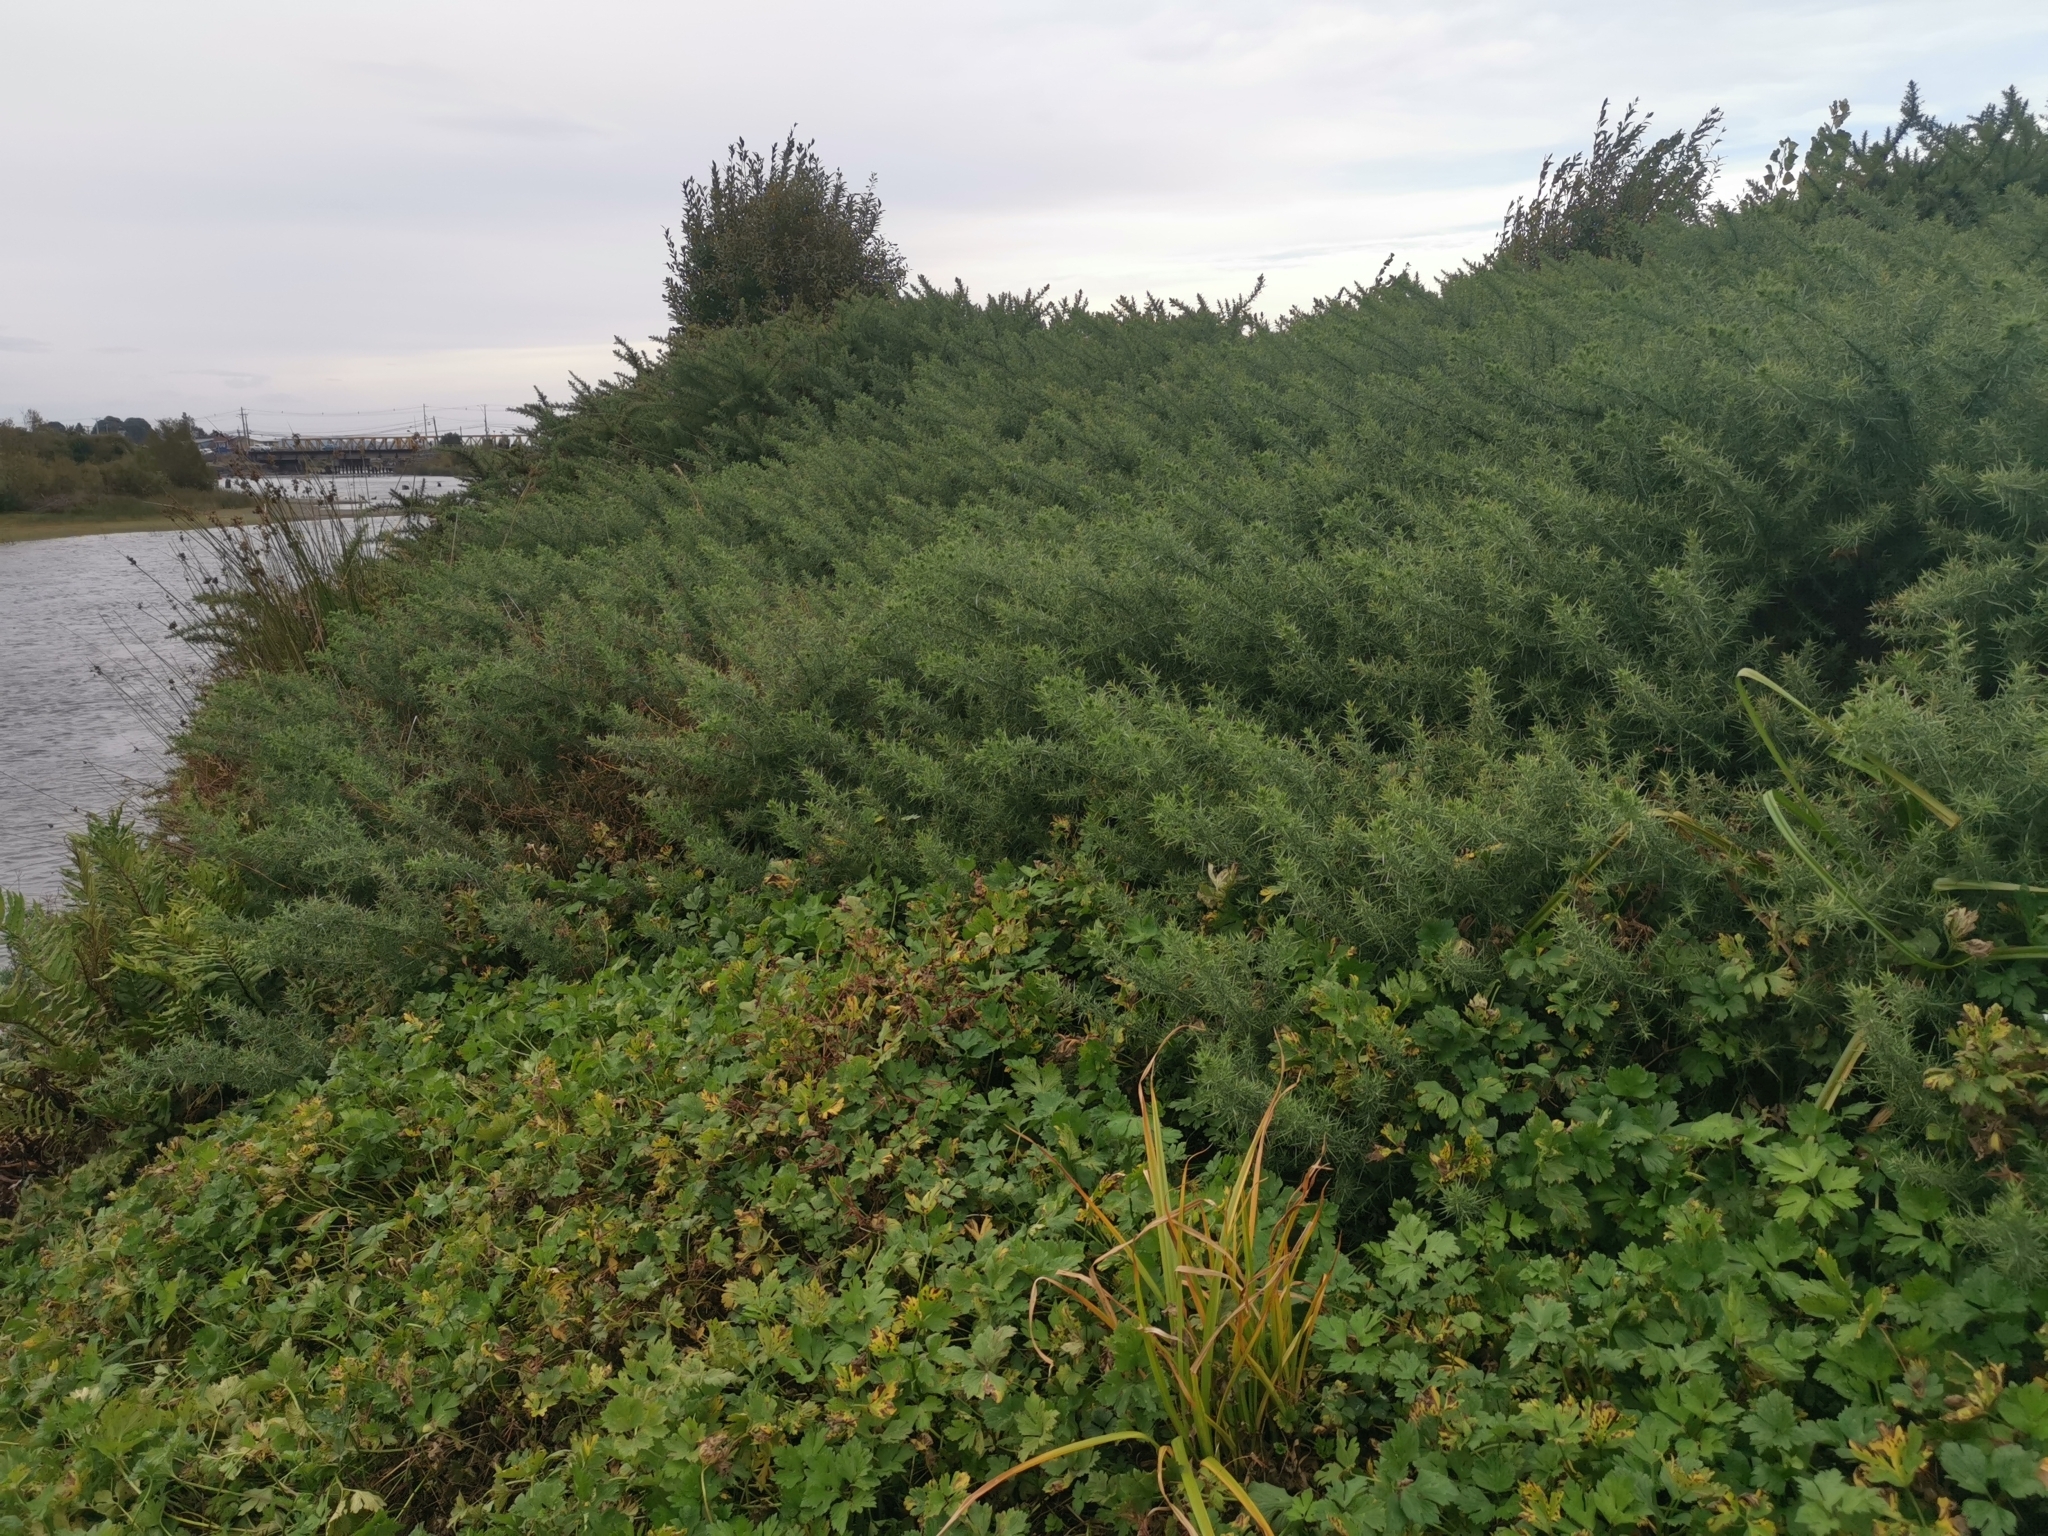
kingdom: Plantae
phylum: Tracheophyta
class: Magnoliopsida
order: Fabales
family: Fabaceae
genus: Ulex
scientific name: Ulex europaeus
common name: Common gorse
